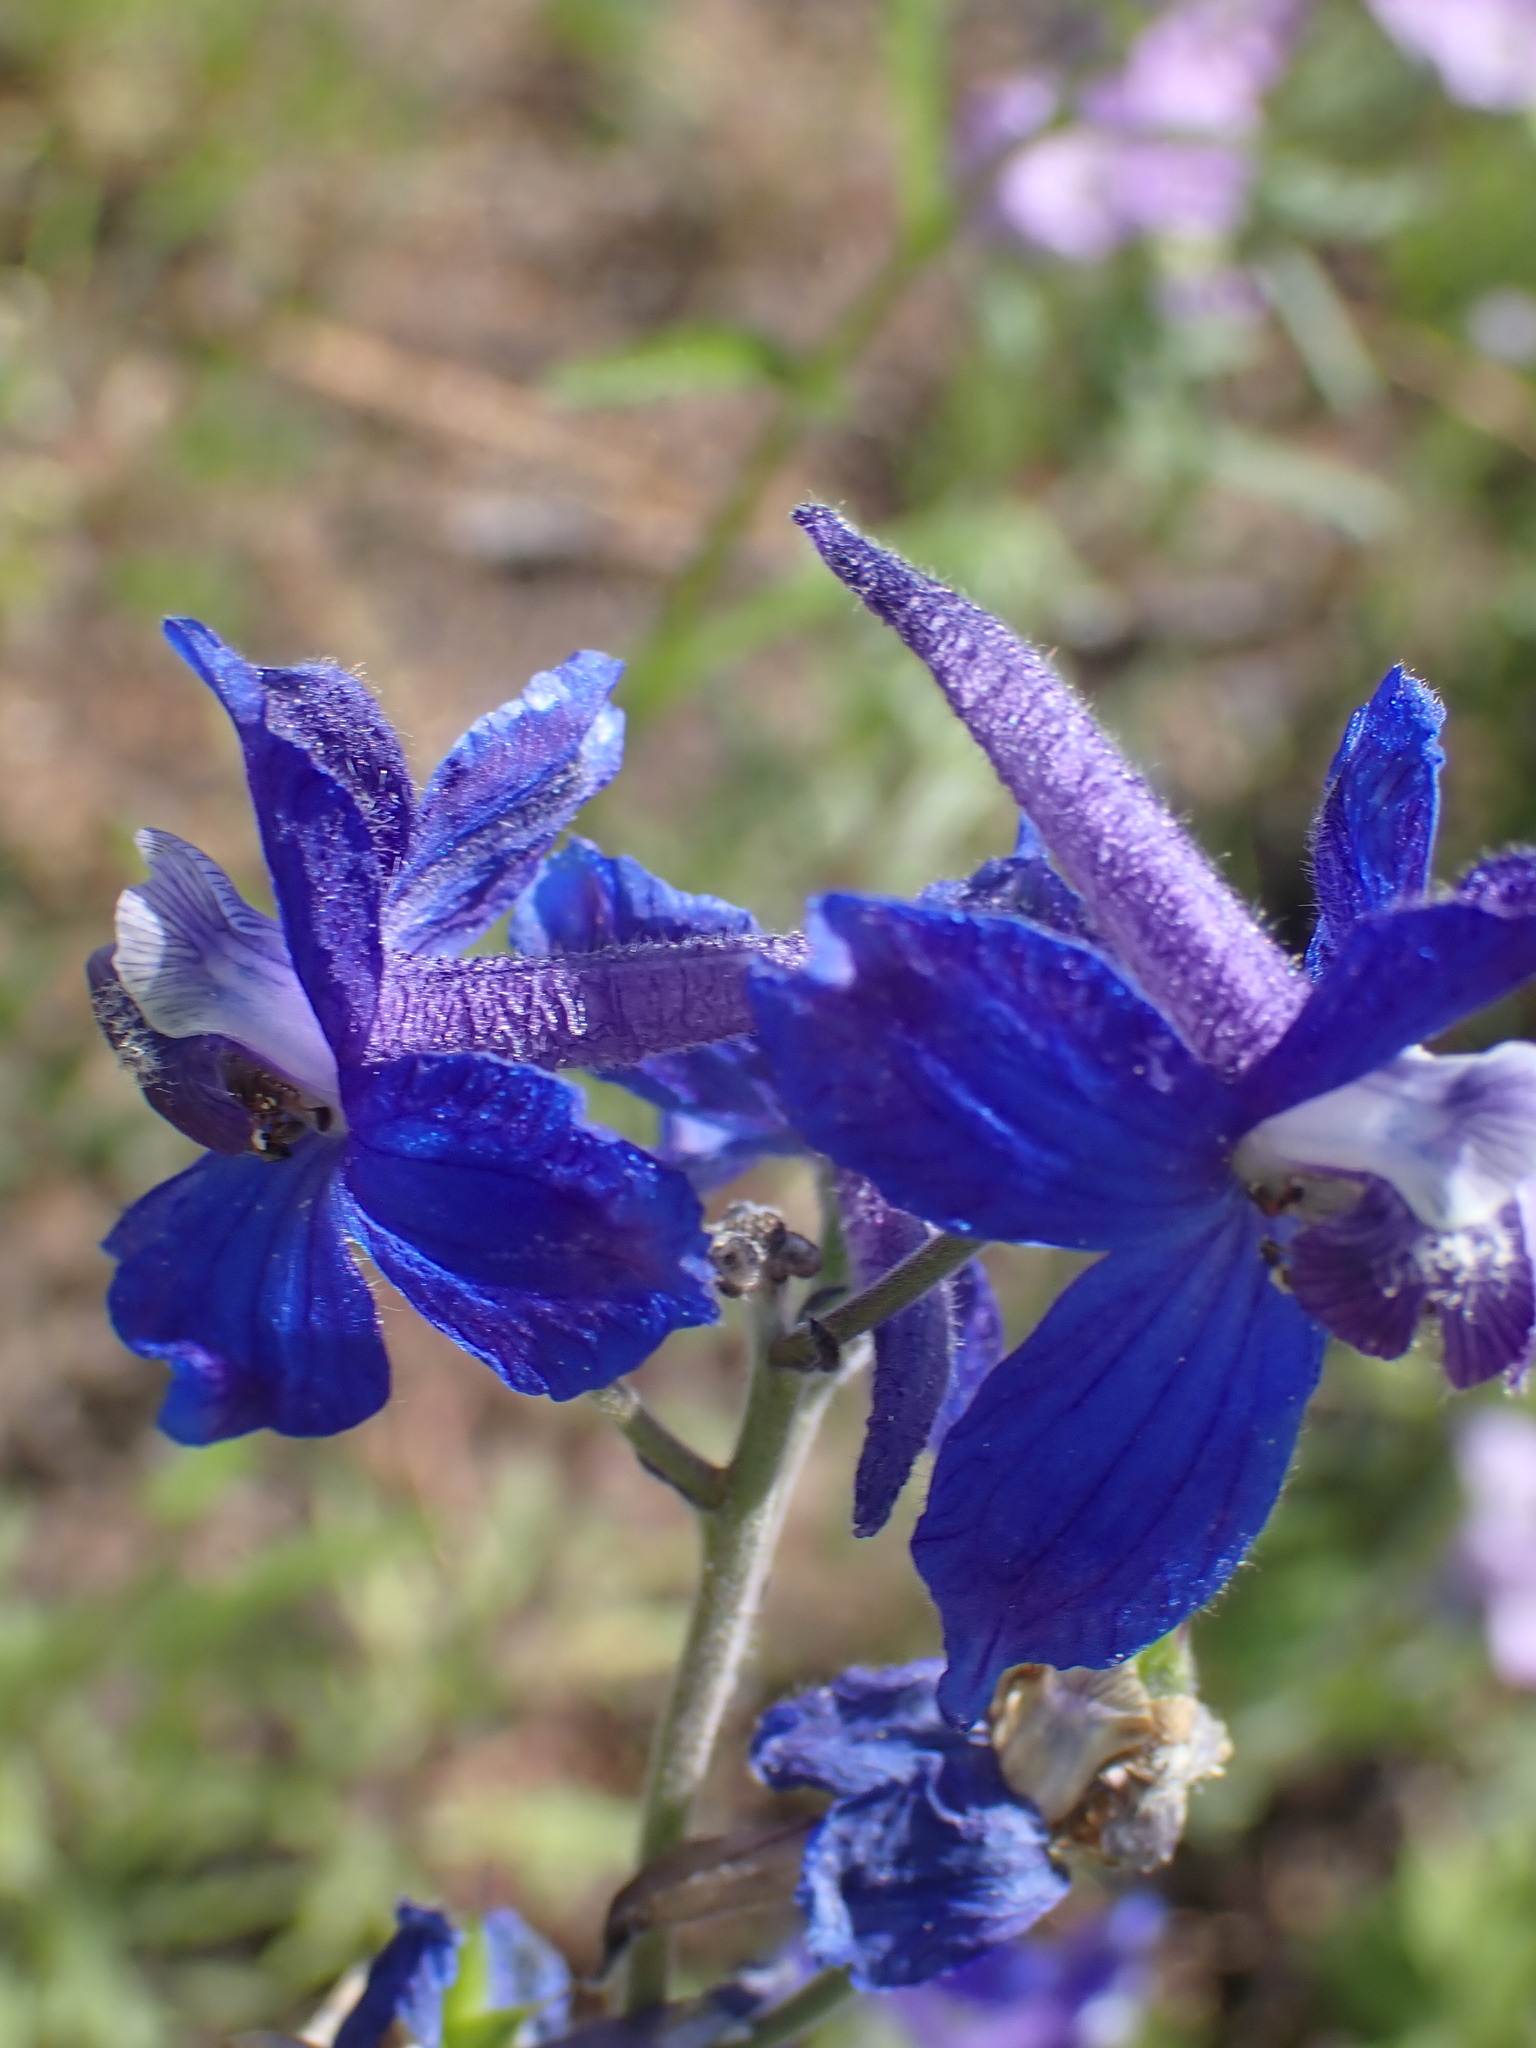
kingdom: Plantae
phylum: Tracheophyta
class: Magnoliopsida
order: Ranunculales
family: Ranunculaceae
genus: Delphinium
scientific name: Delphinium nuttallianum
